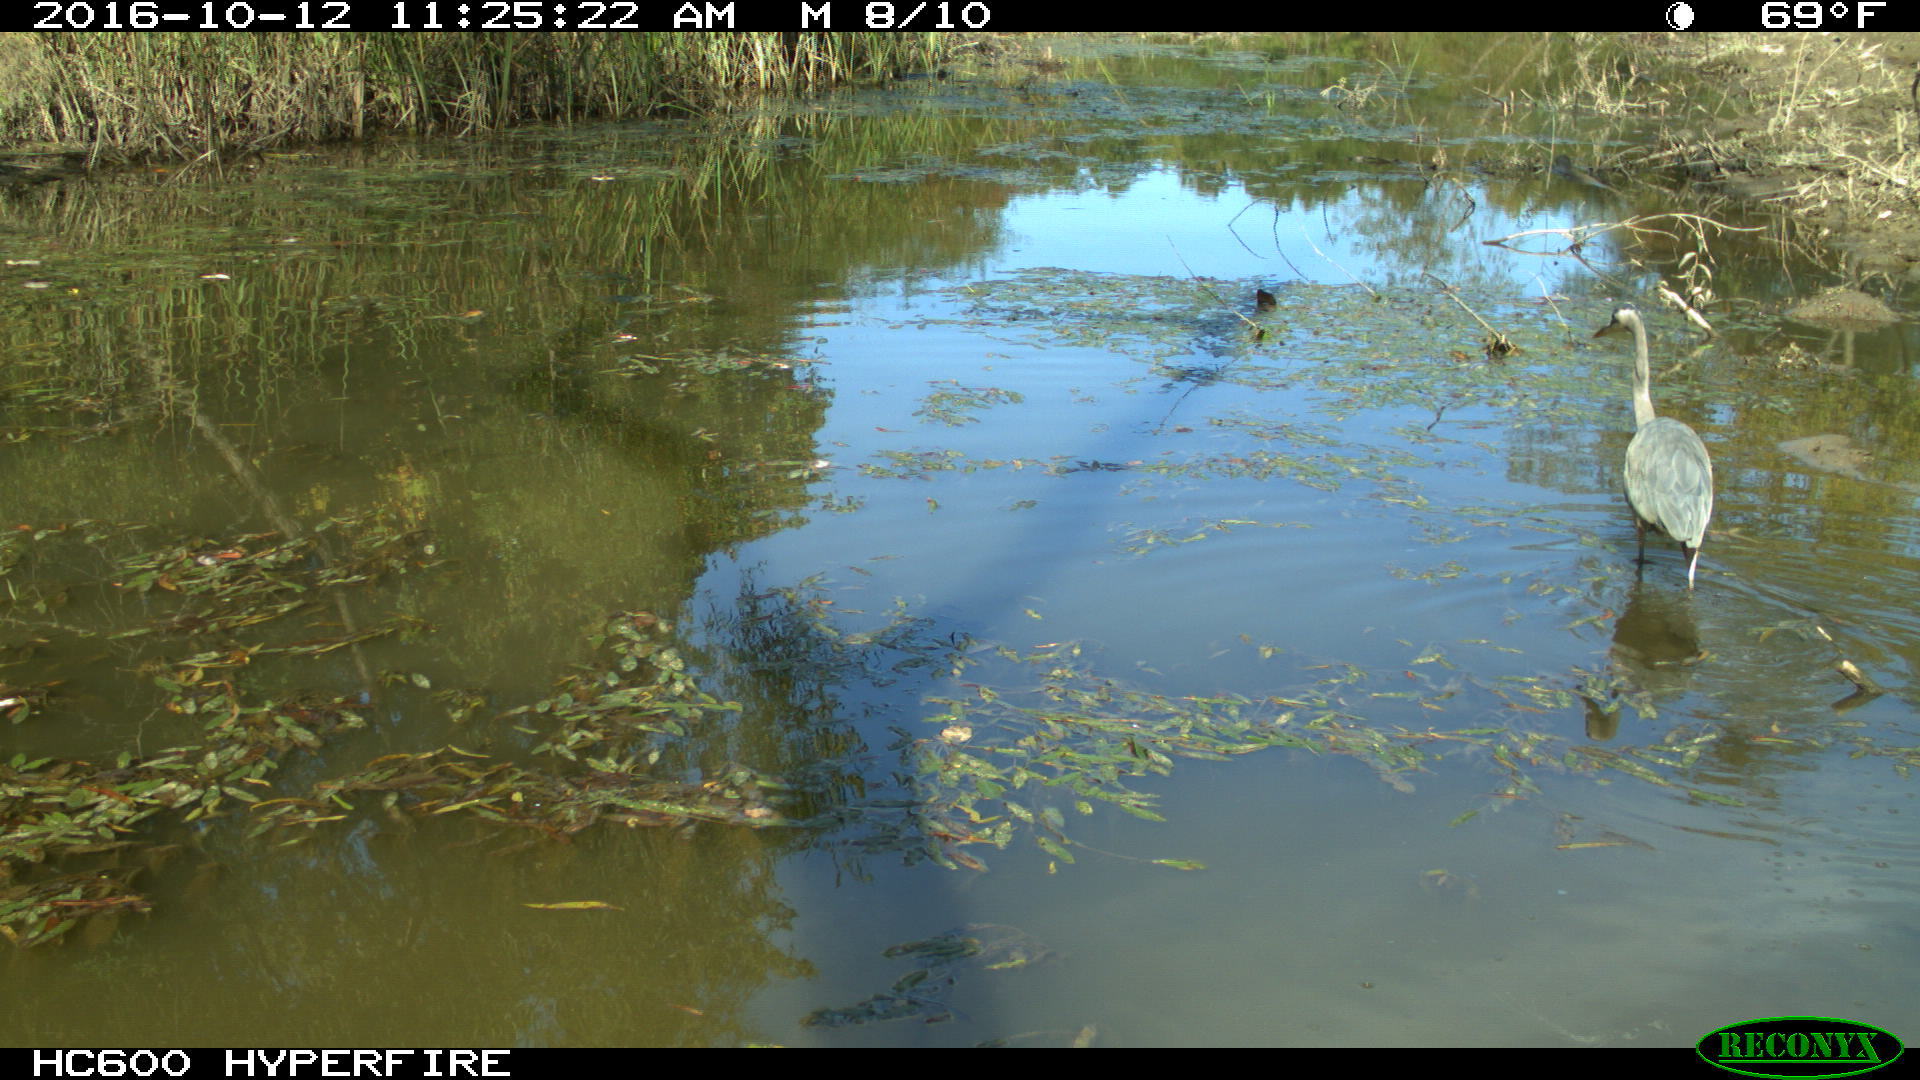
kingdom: Animalia
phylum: Chordata
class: Aves
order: Pelecaniformes
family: Ardeidae
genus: Ardea
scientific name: Ardea herodias
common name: Great blue heron
